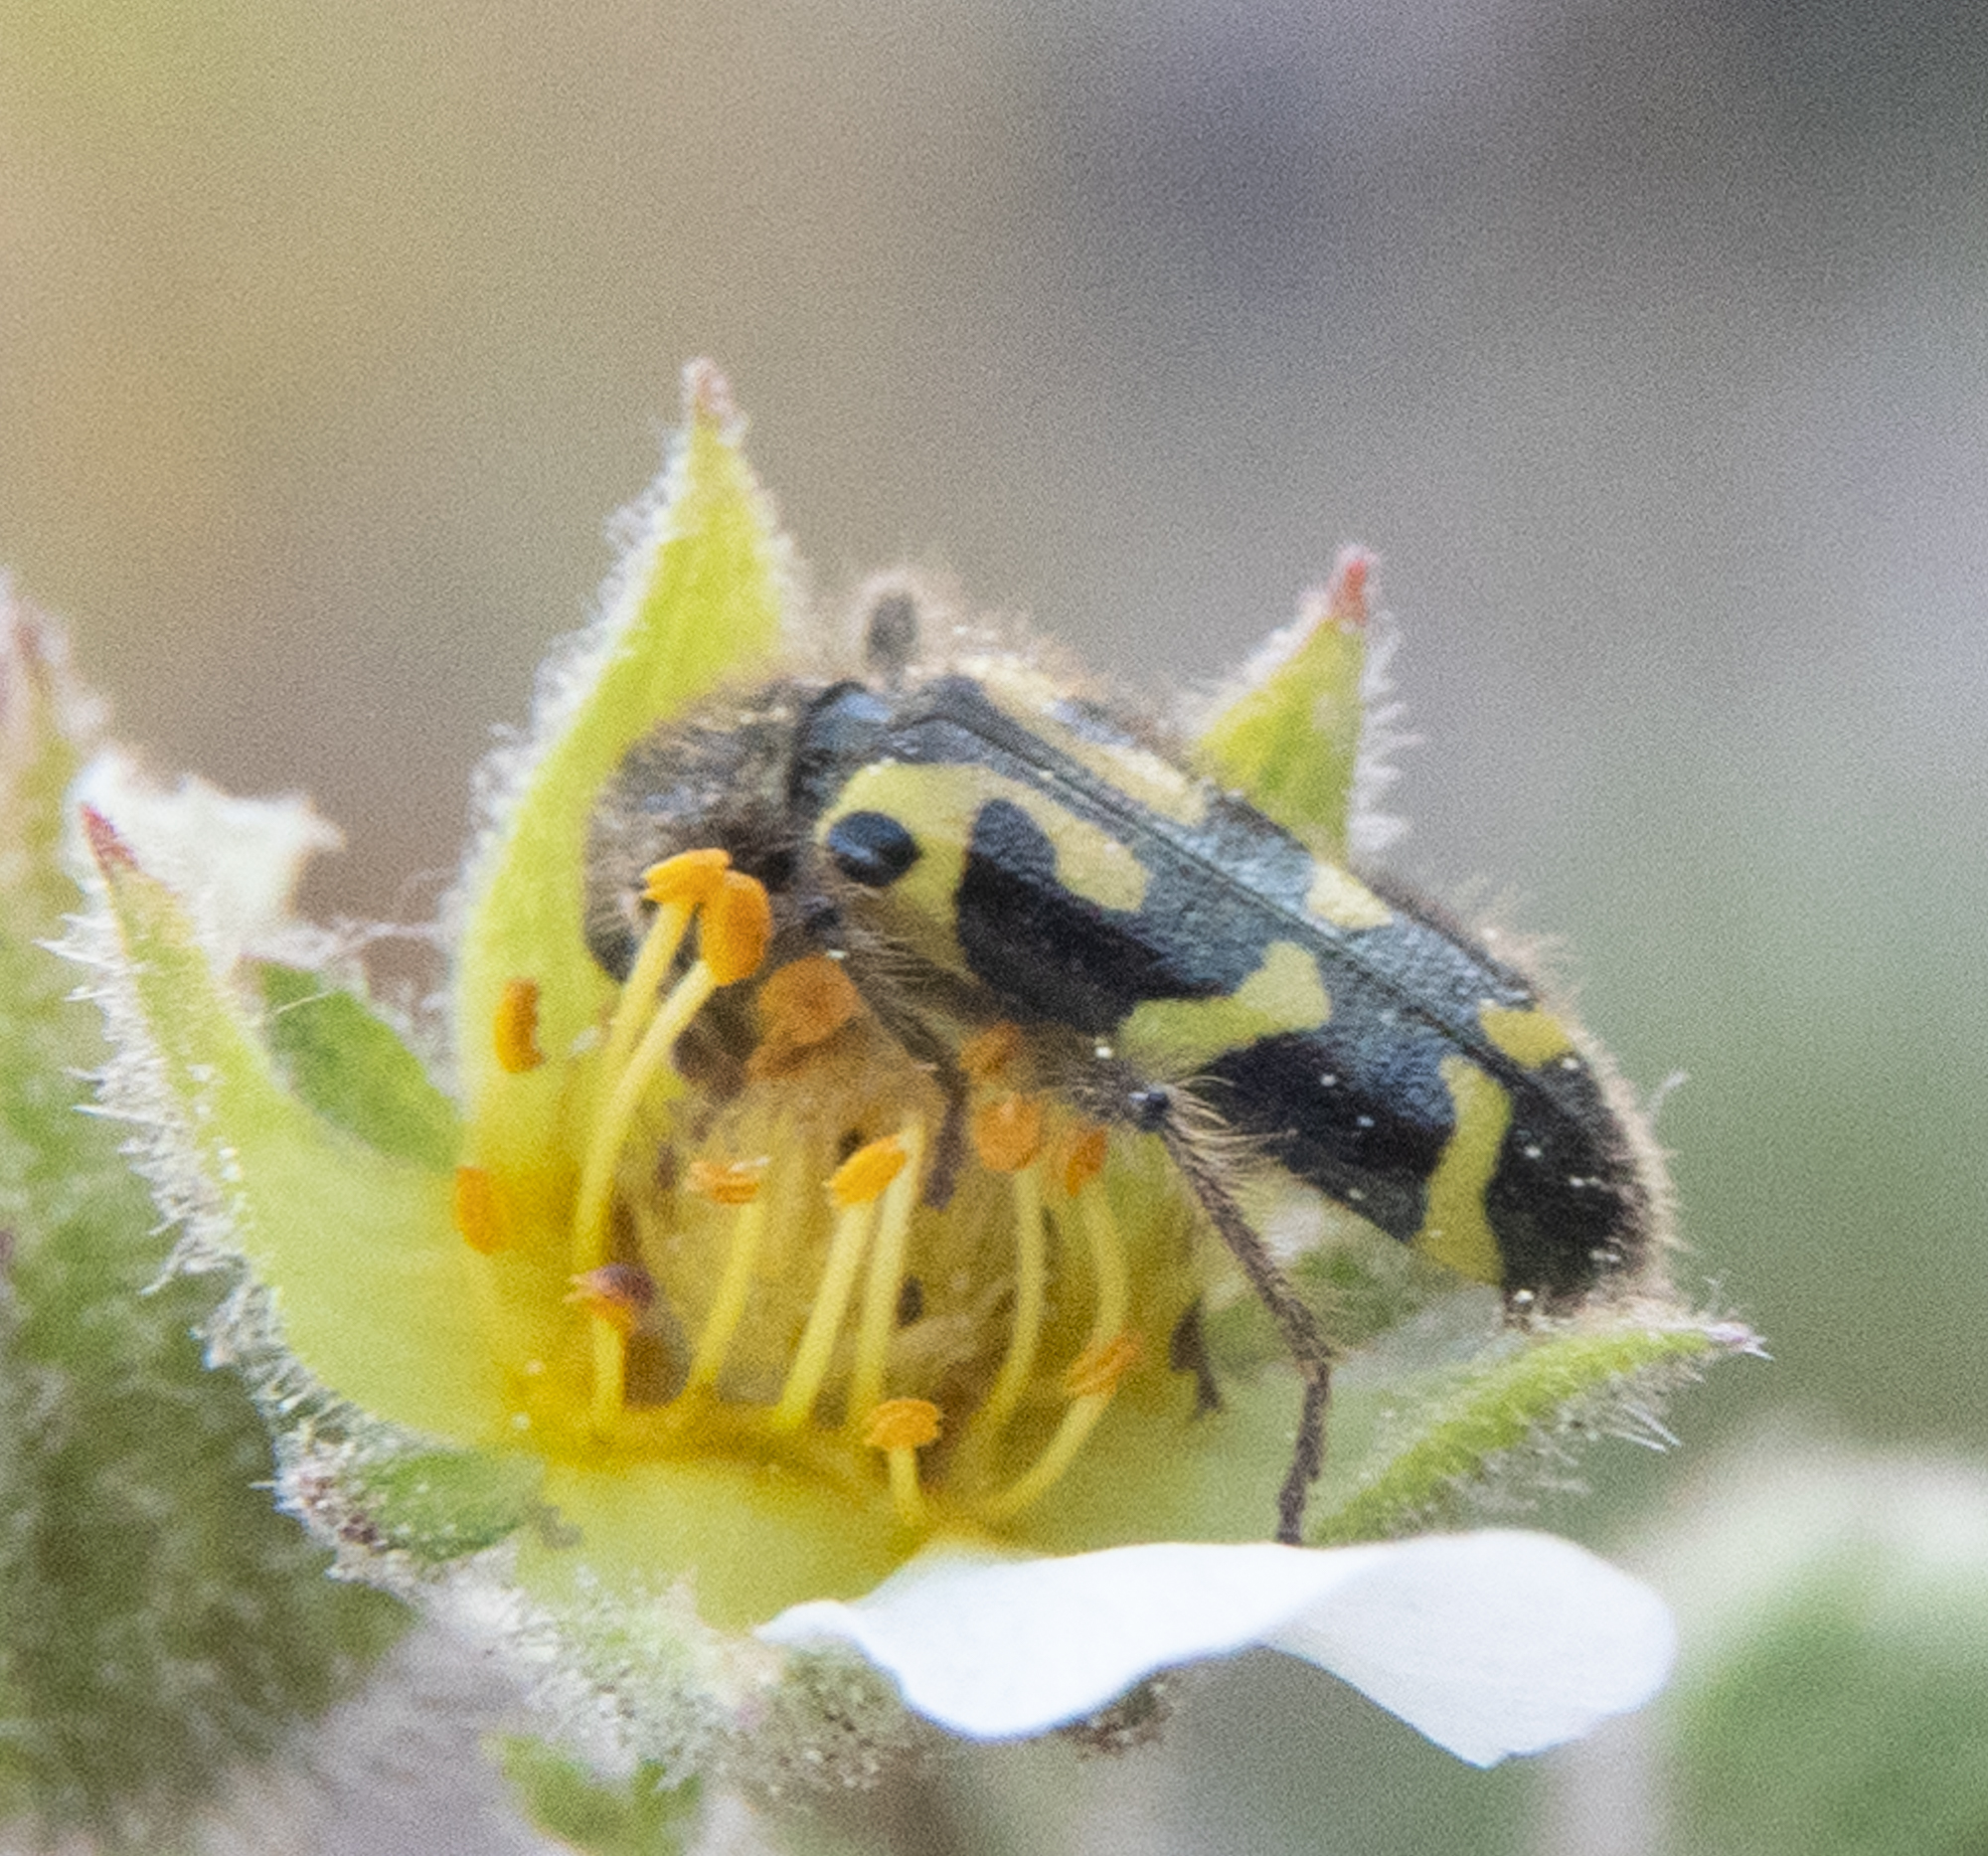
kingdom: Animalia
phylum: Arthropoda
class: Insecta
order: Coleoptera
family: Cleridae
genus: Trichodes
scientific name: Trichodes ornatus
